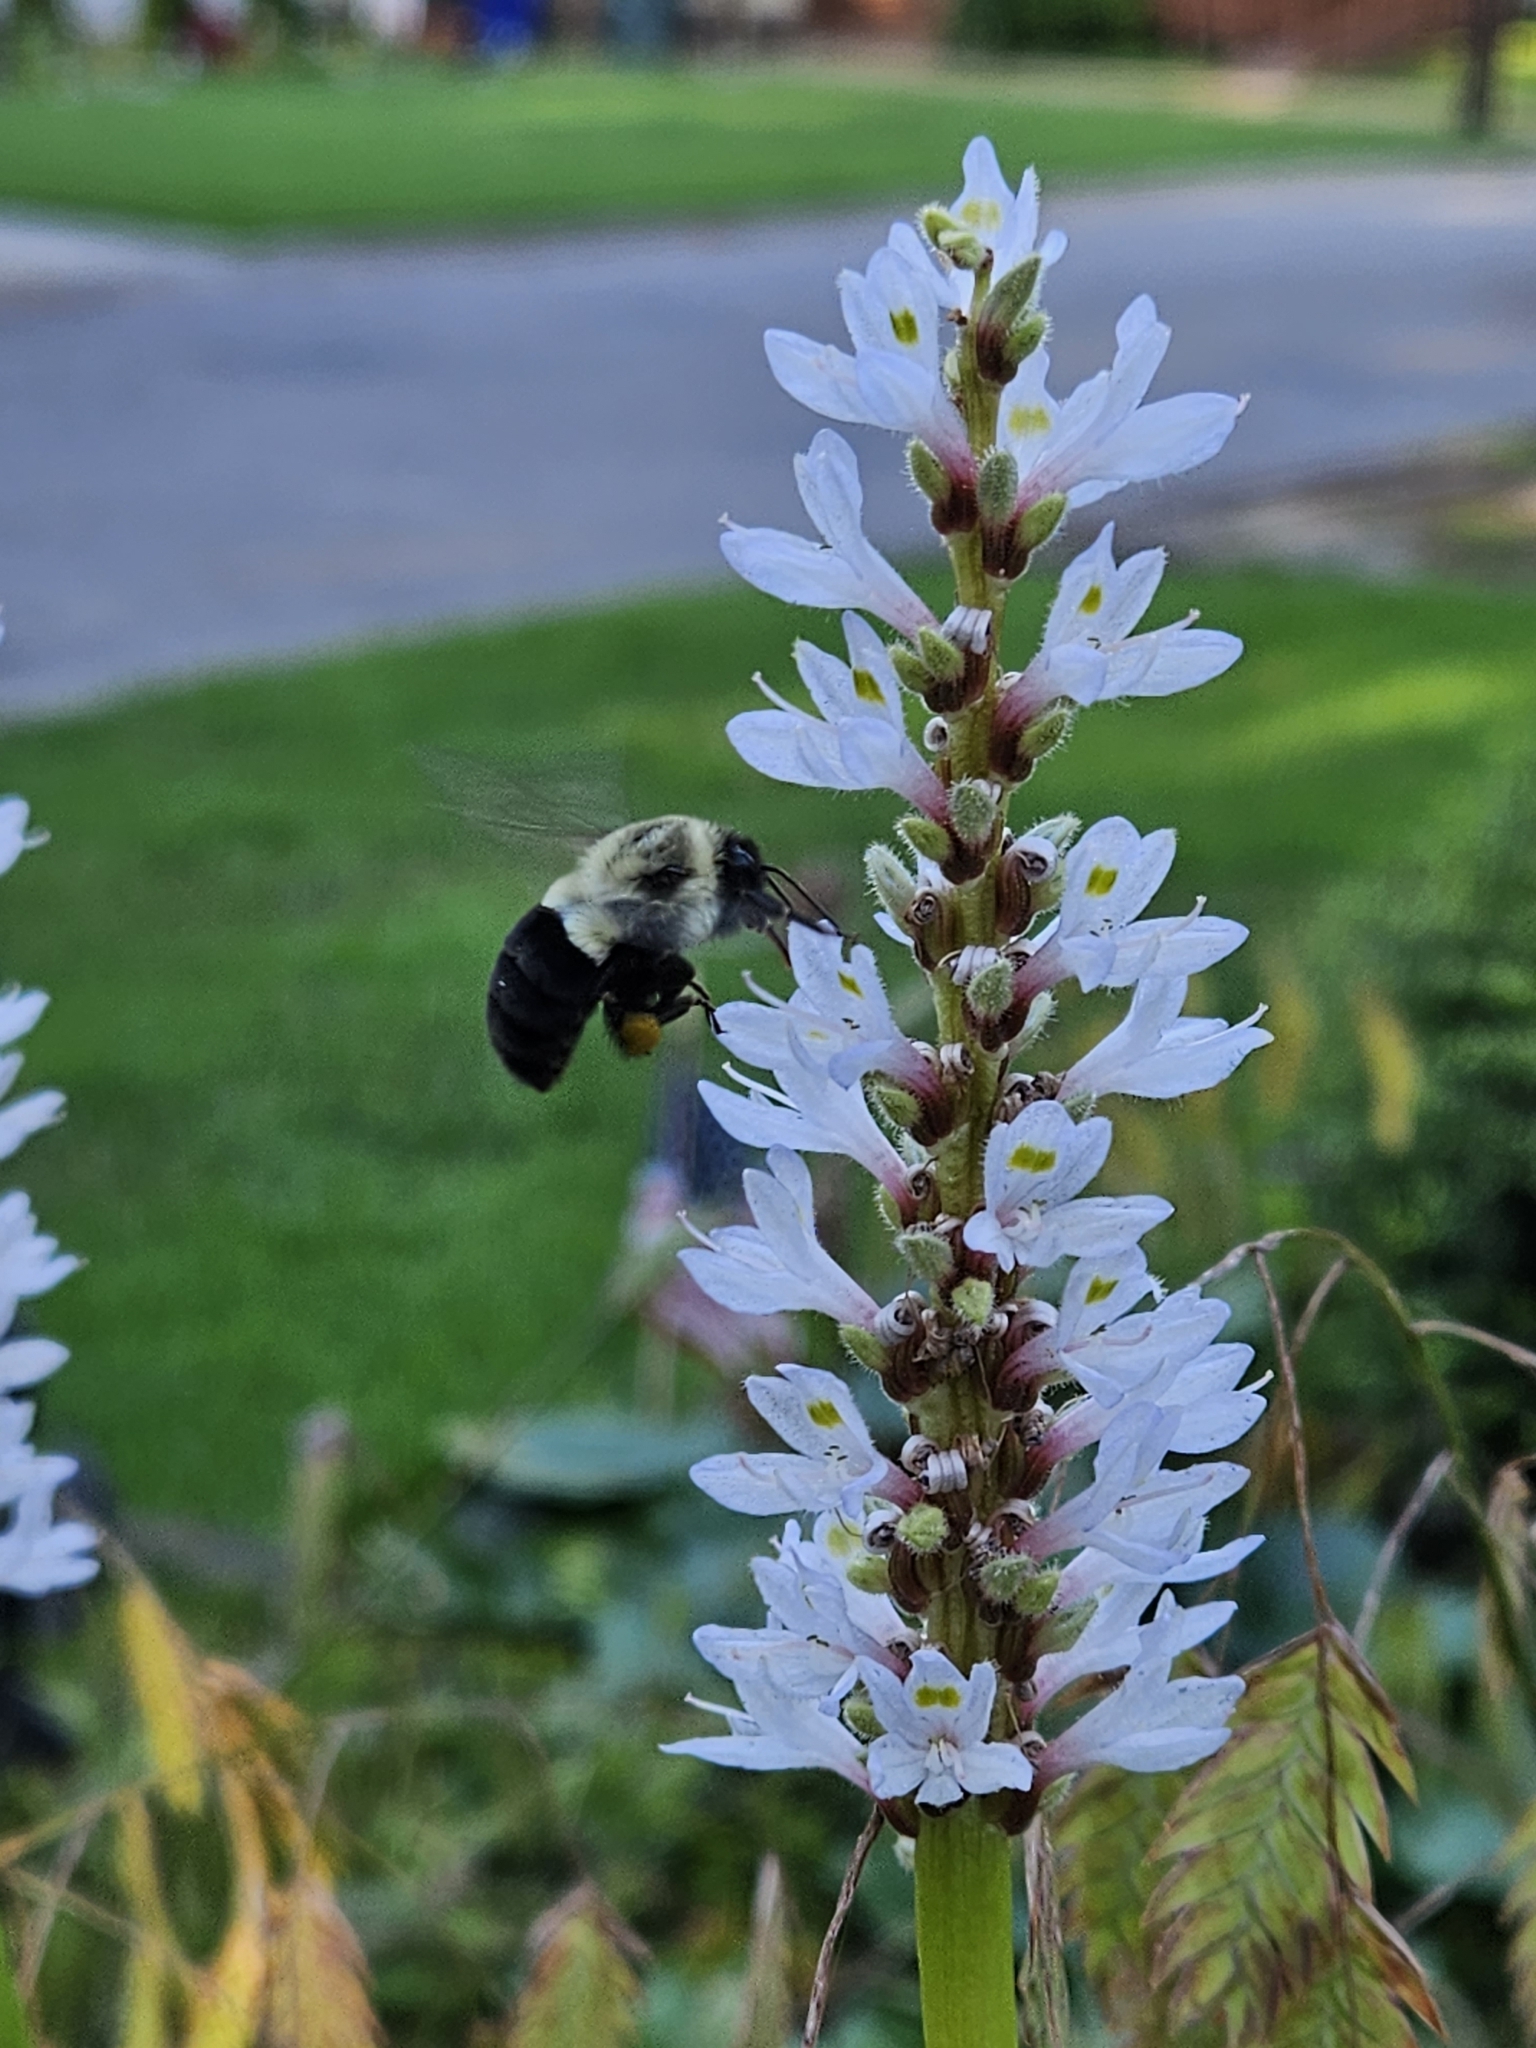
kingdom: Animalia
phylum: Arthropoda
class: Insecta
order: Hymenoptera
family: Apidae
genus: Bombus
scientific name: Bombus impatiens
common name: Common eastern bumble bee
